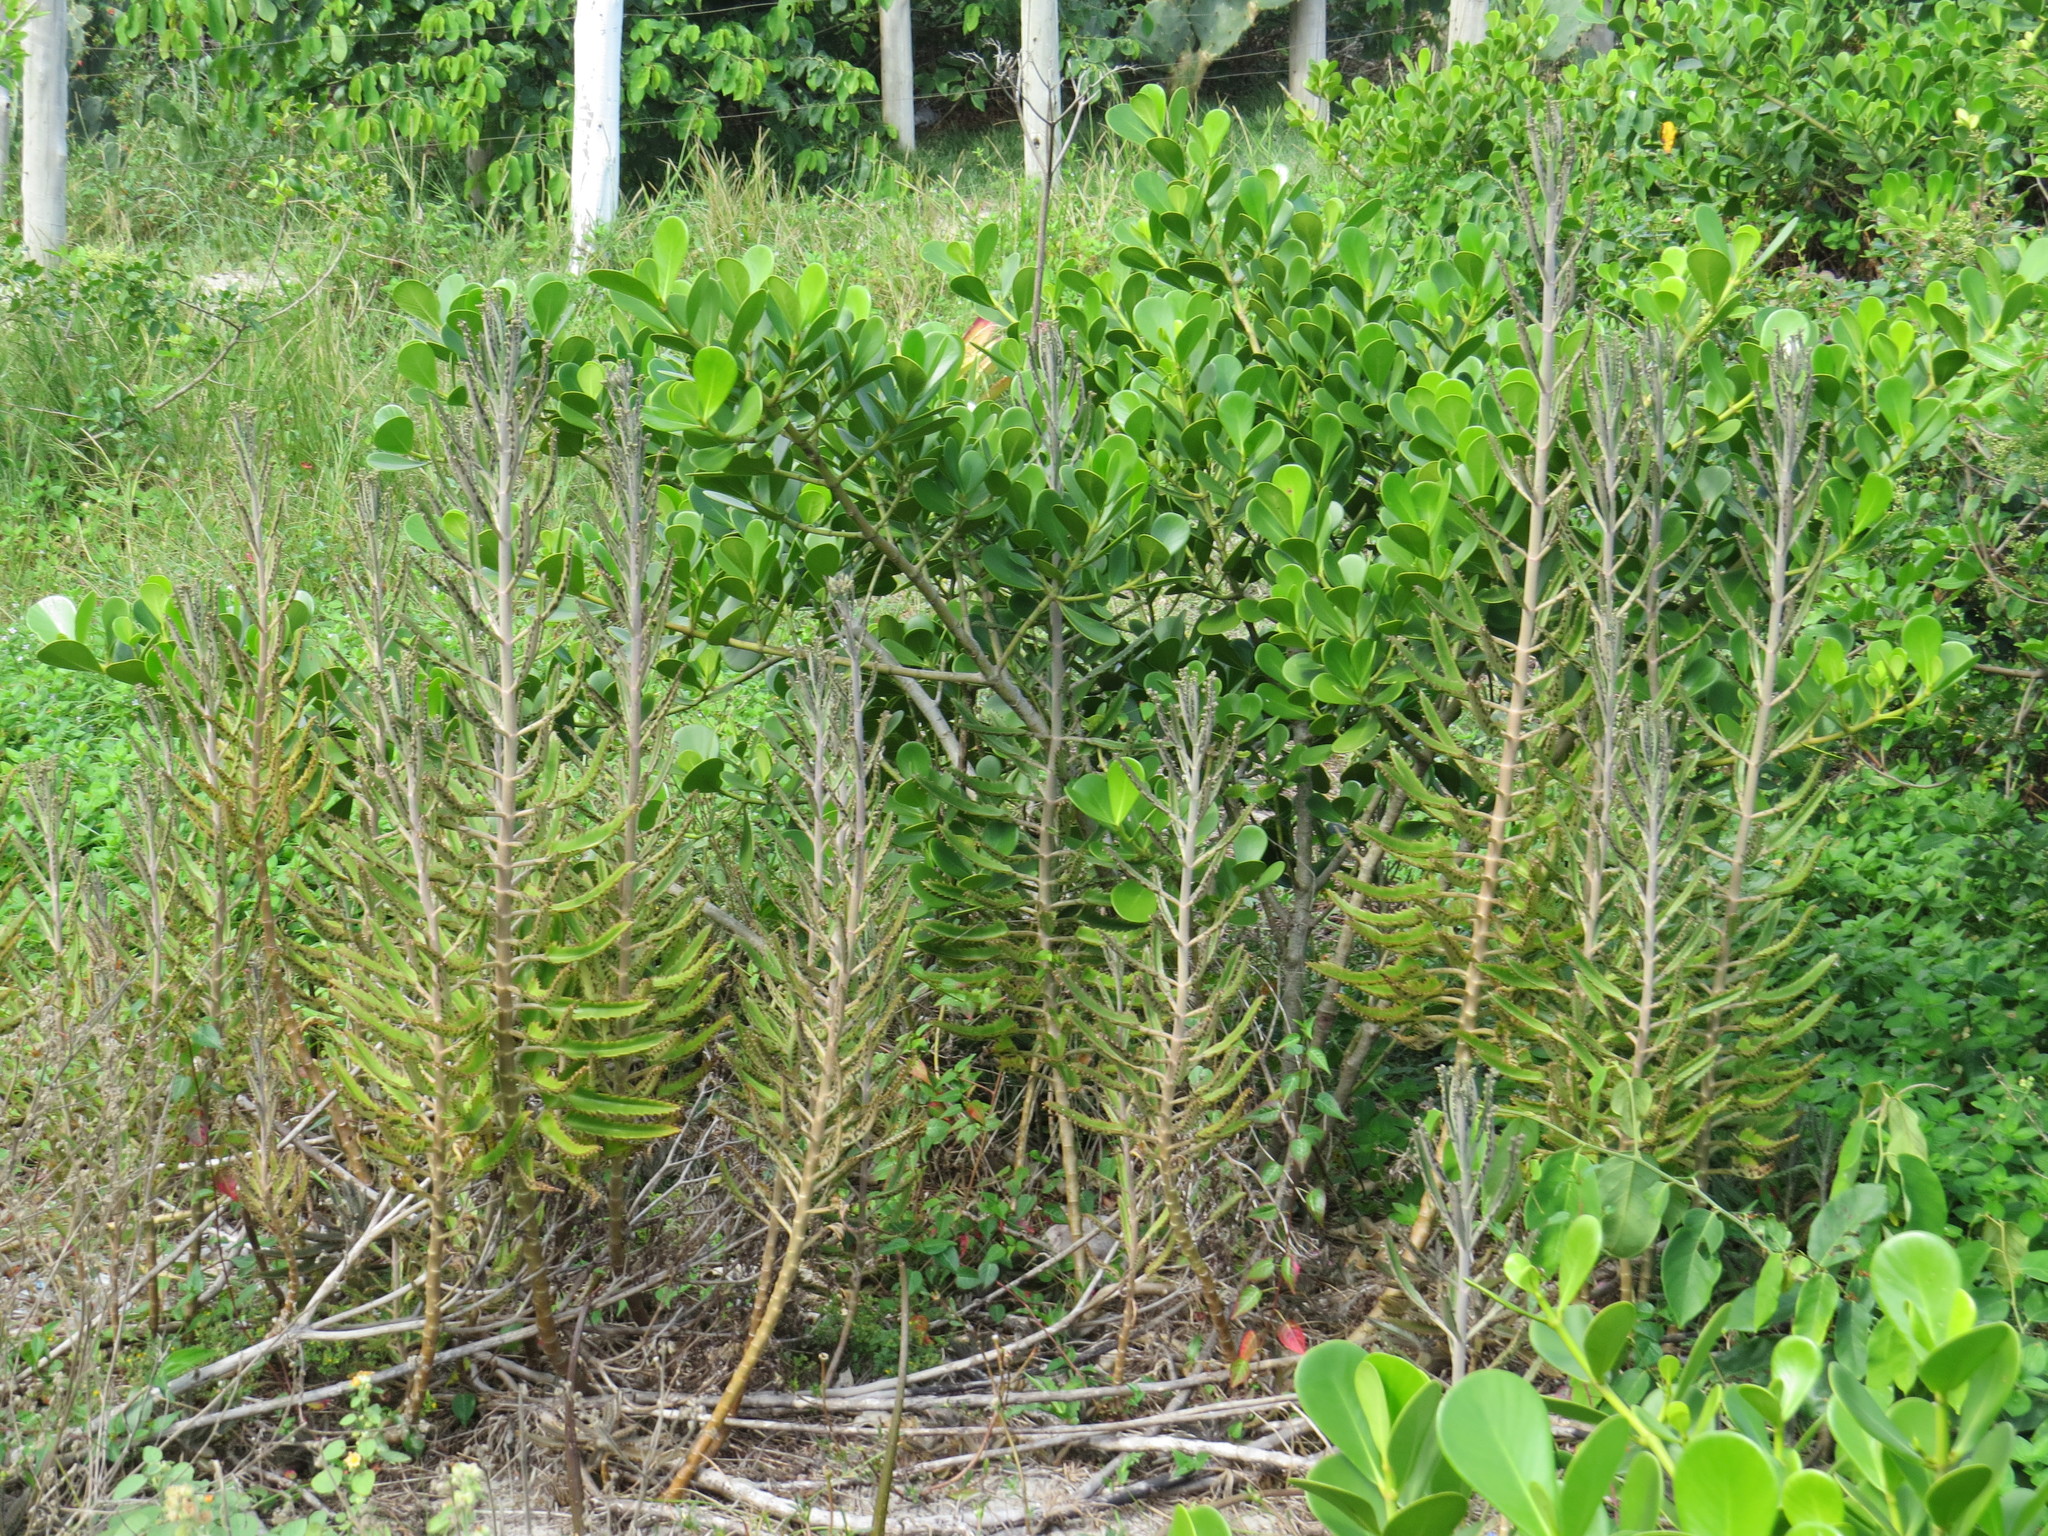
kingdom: Plantae
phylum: Tracheophyta
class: Magnoliopsida
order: Saxifragales
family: Crassulaceae
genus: Kalanchoe
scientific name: Kalanchoe houghtonii
